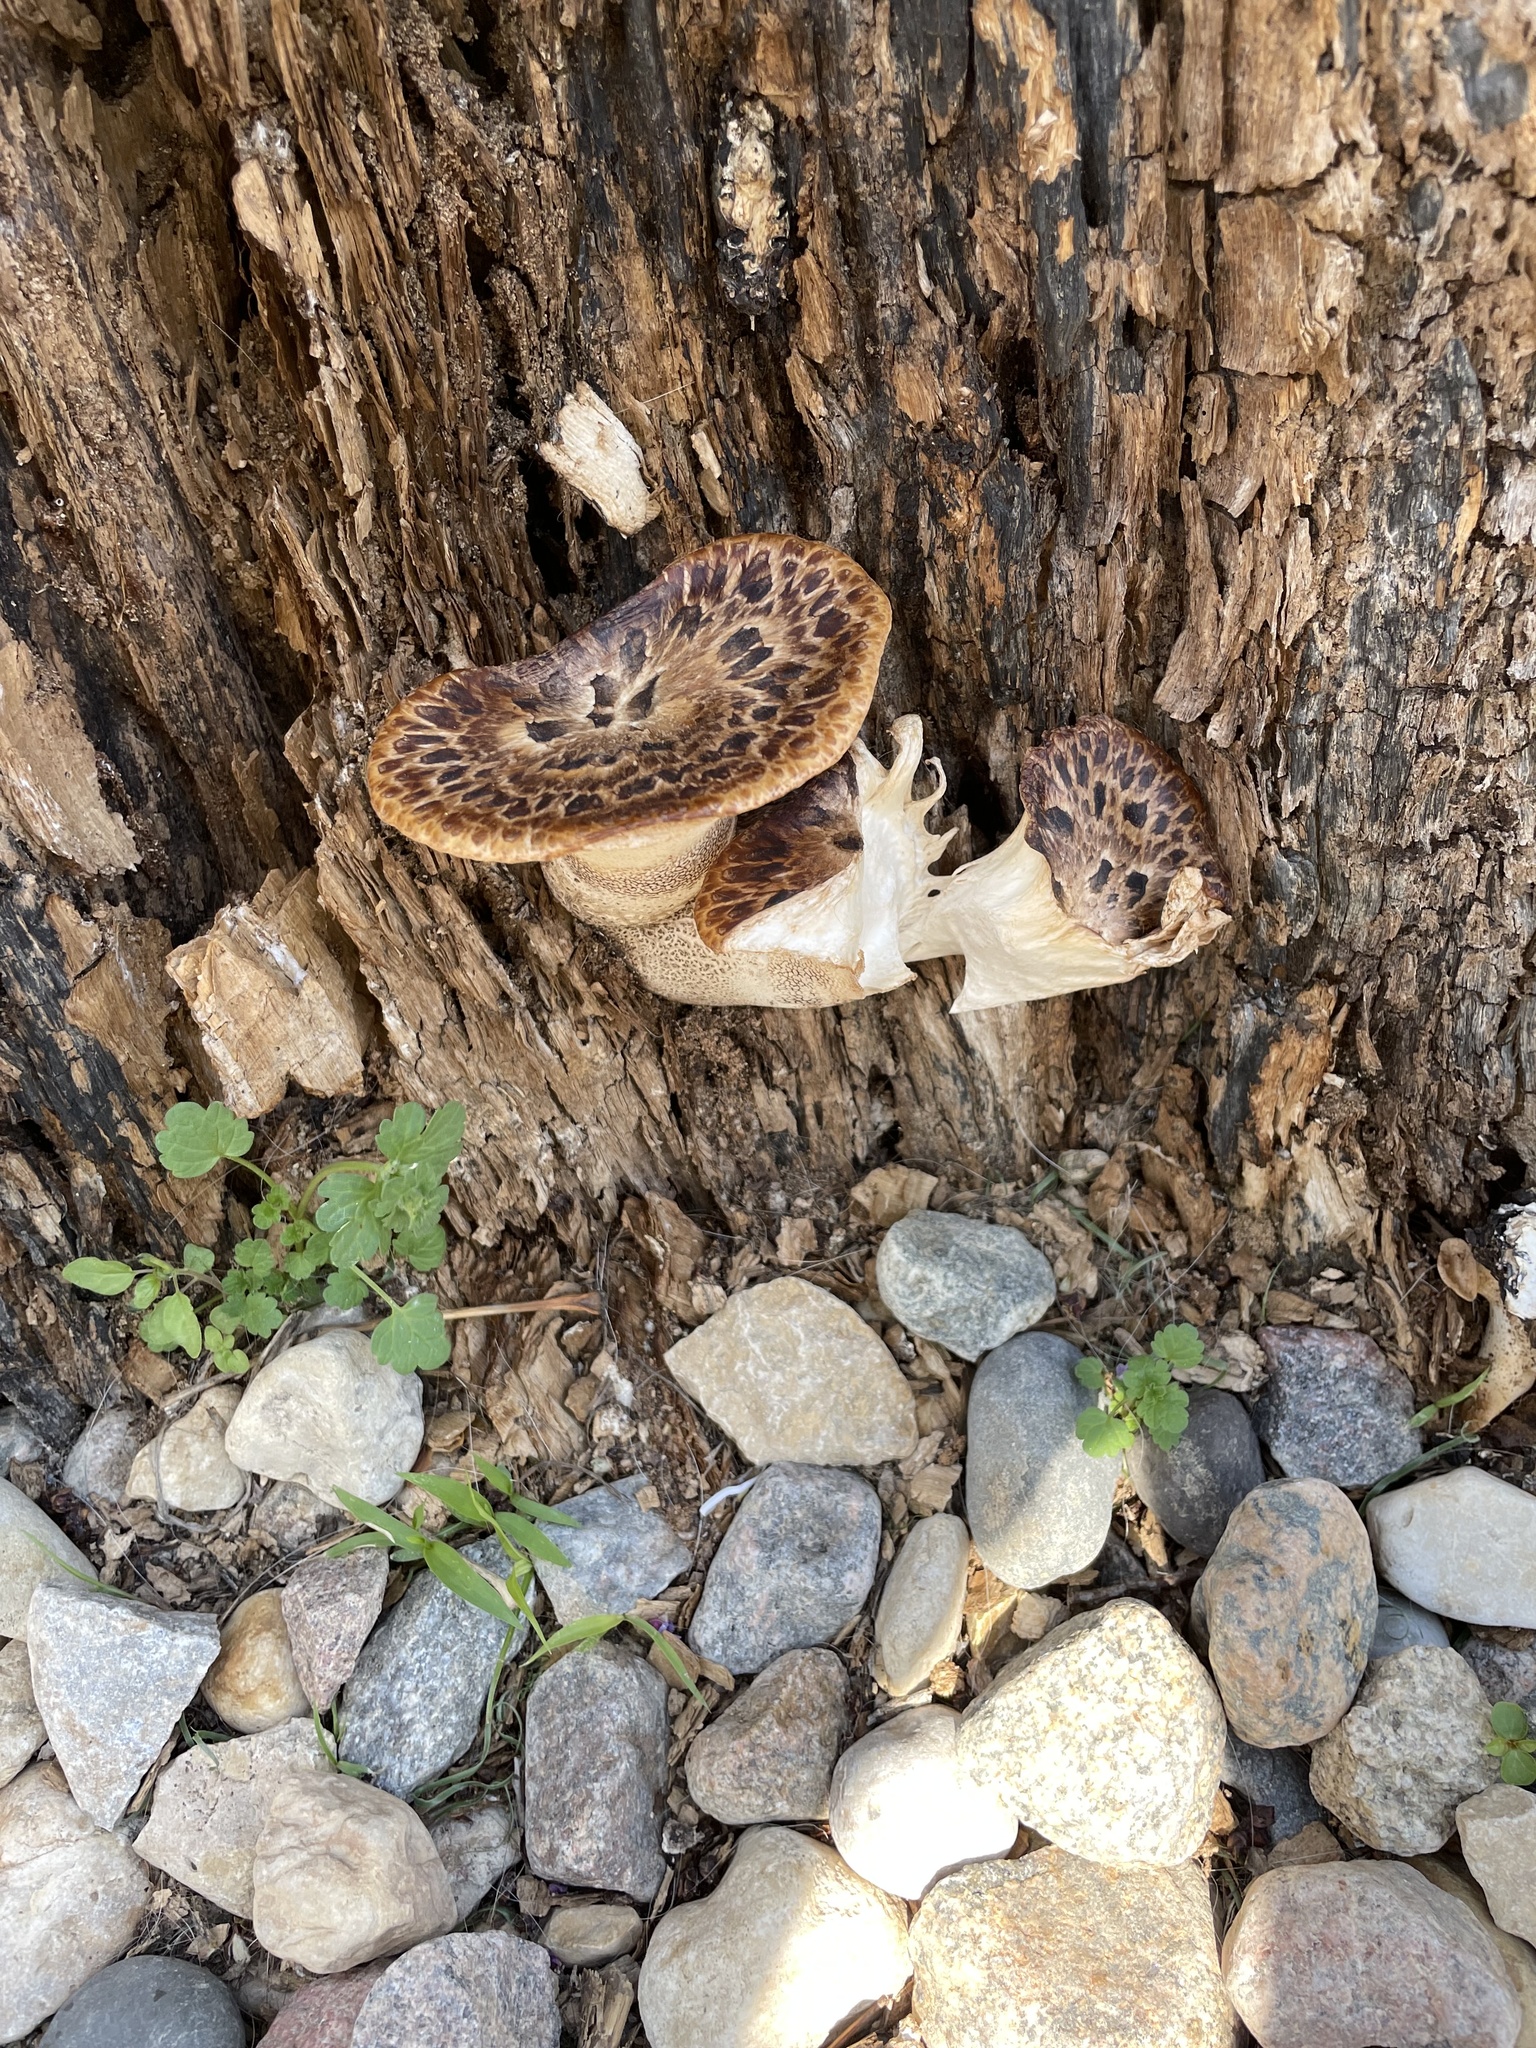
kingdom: Fungi
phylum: Basidiomycota
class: Agaricomycetes
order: Polyporales
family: Polyporaceae
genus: Cerioporus
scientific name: Cerioporus squamosus
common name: Dryad's saddle
